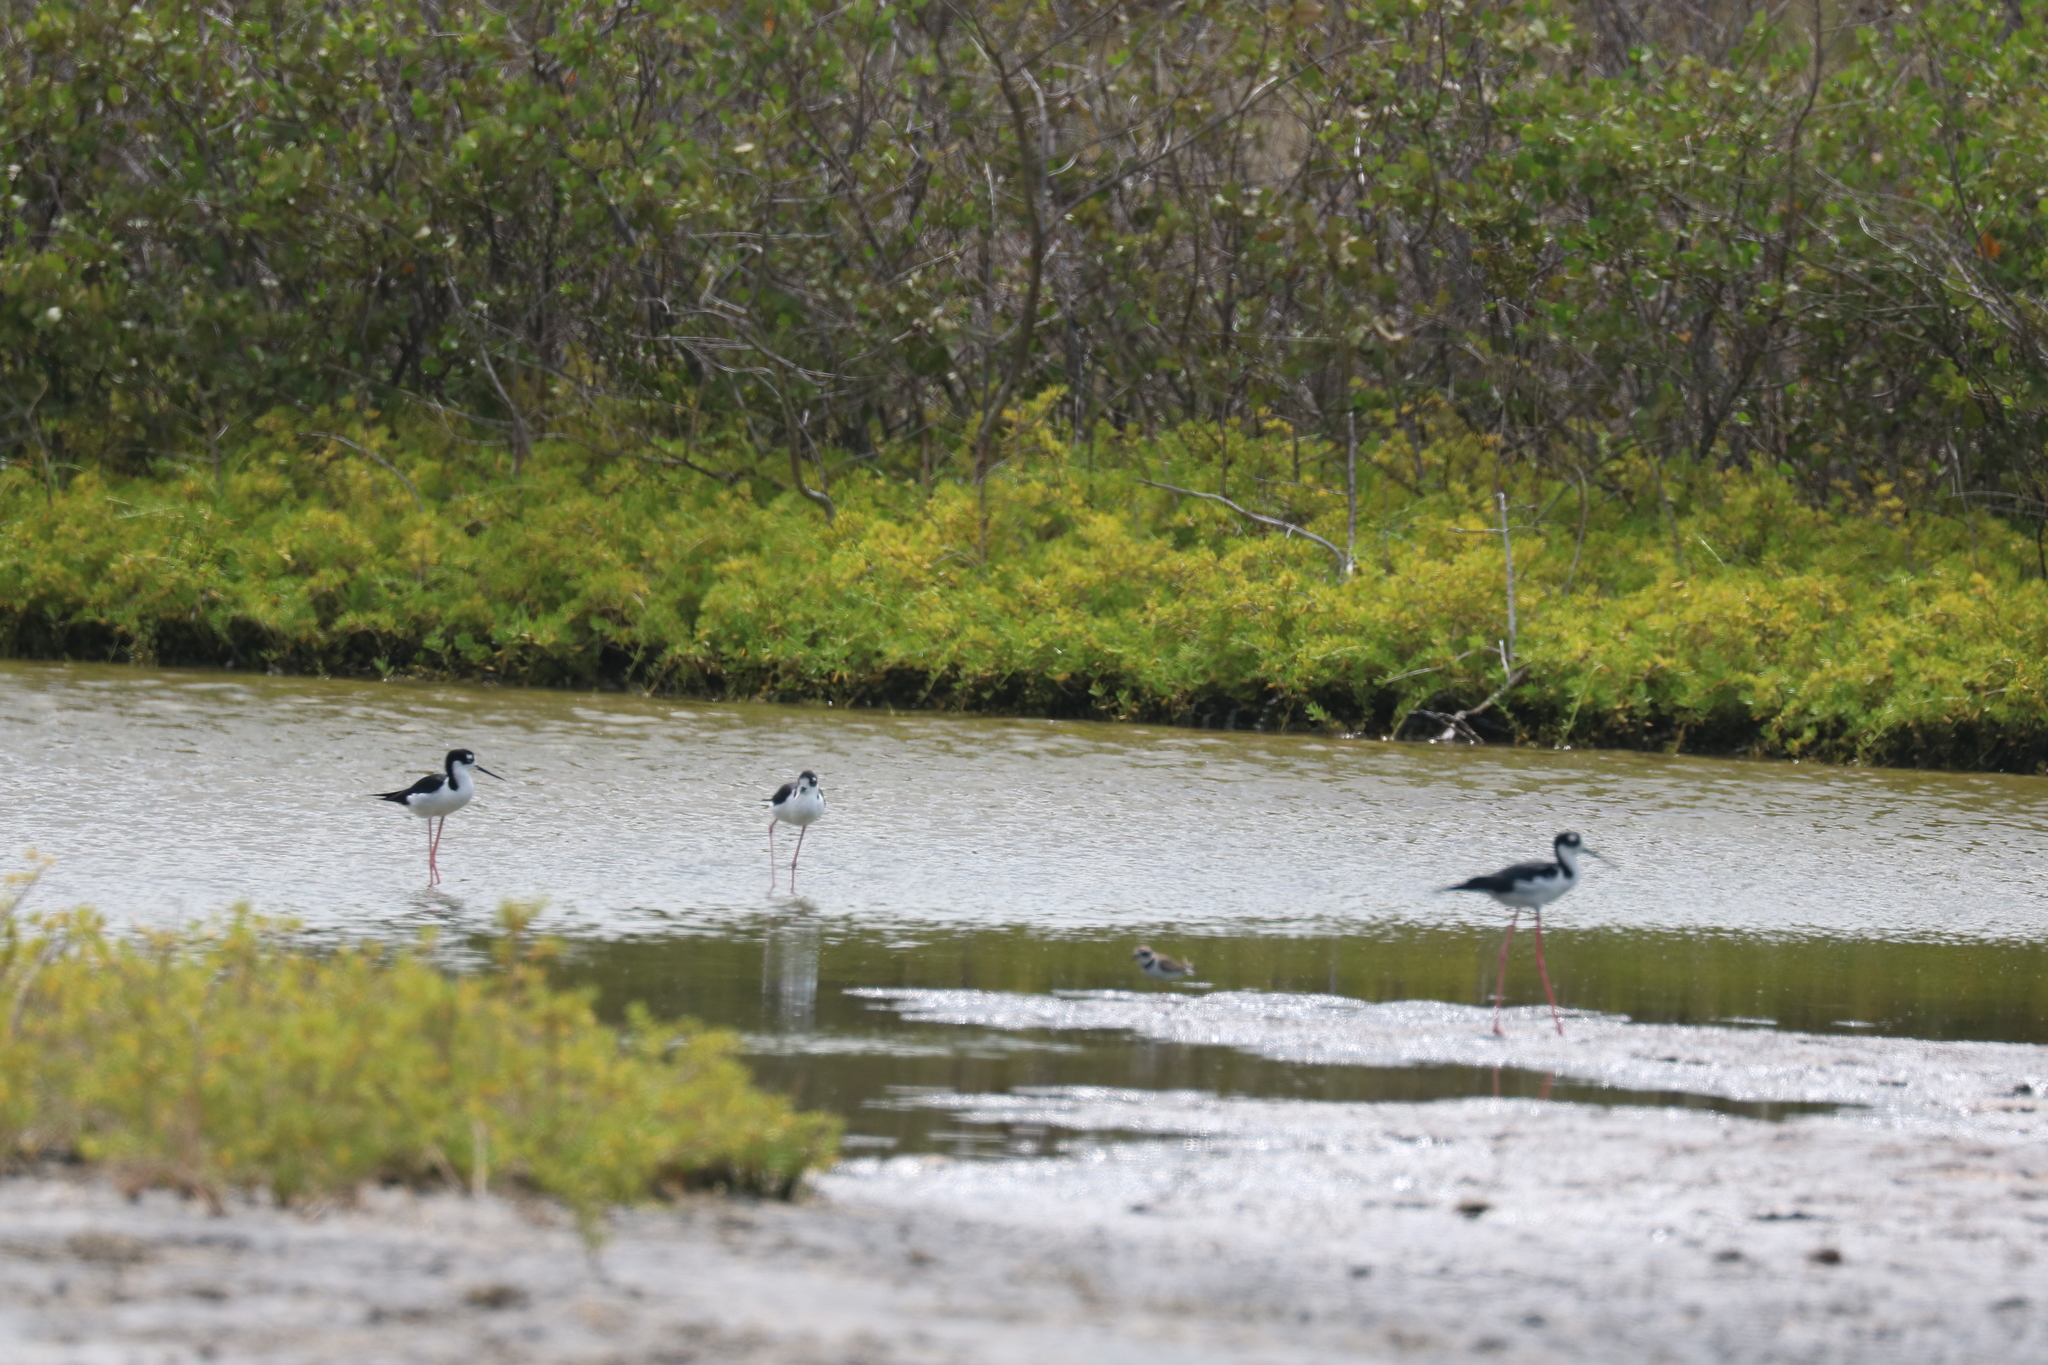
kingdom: Animalia
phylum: Chordata
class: Aves
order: Charadriiformes
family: Recurvirostridae
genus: Himantopus
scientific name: Himantopus mexicanus
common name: Black-necked stilt
